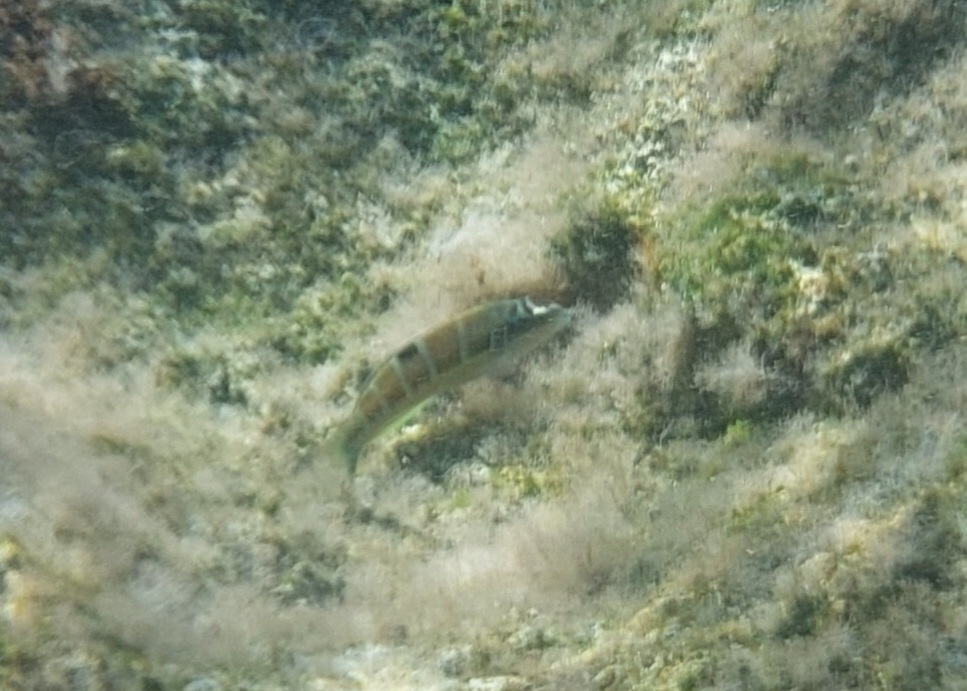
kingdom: Animalia
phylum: Chordata
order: Perciformes
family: Labridae
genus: Thalassoma
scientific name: Thalassoma pavo
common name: Ornate wrasse
